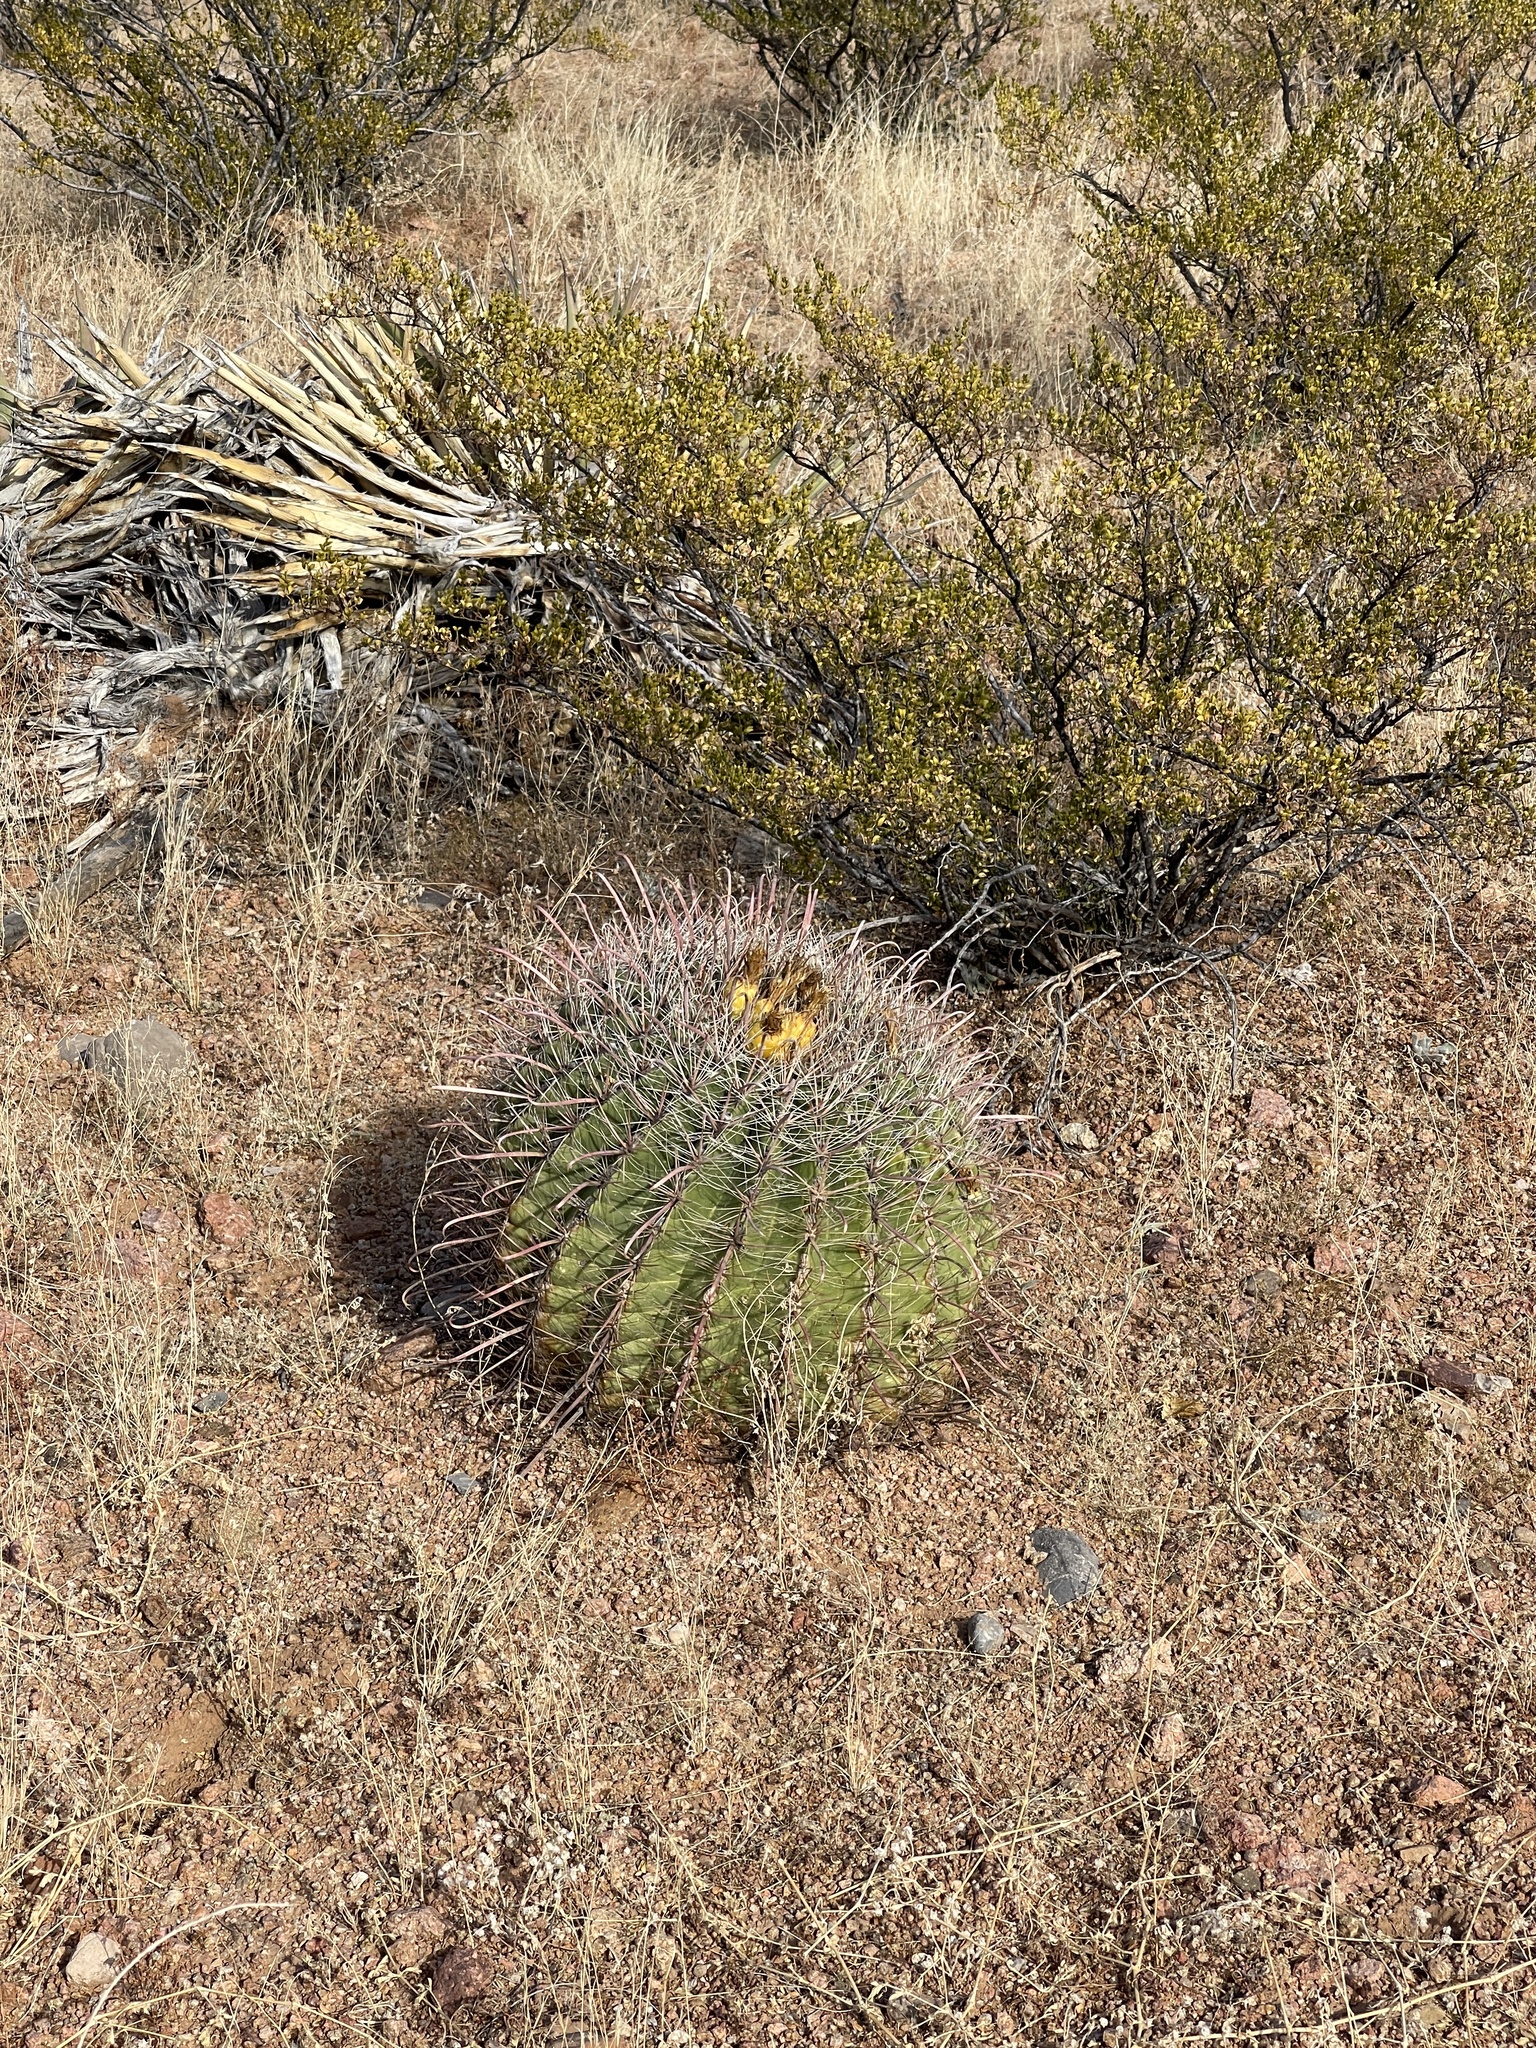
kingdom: Plantae
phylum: Tracheophyta
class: Magnoliopsida
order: Caryophyllales
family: Cactaceae
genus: Ferocactus
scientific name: Ferocactus wislizeni
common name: Candy barrel cactus
